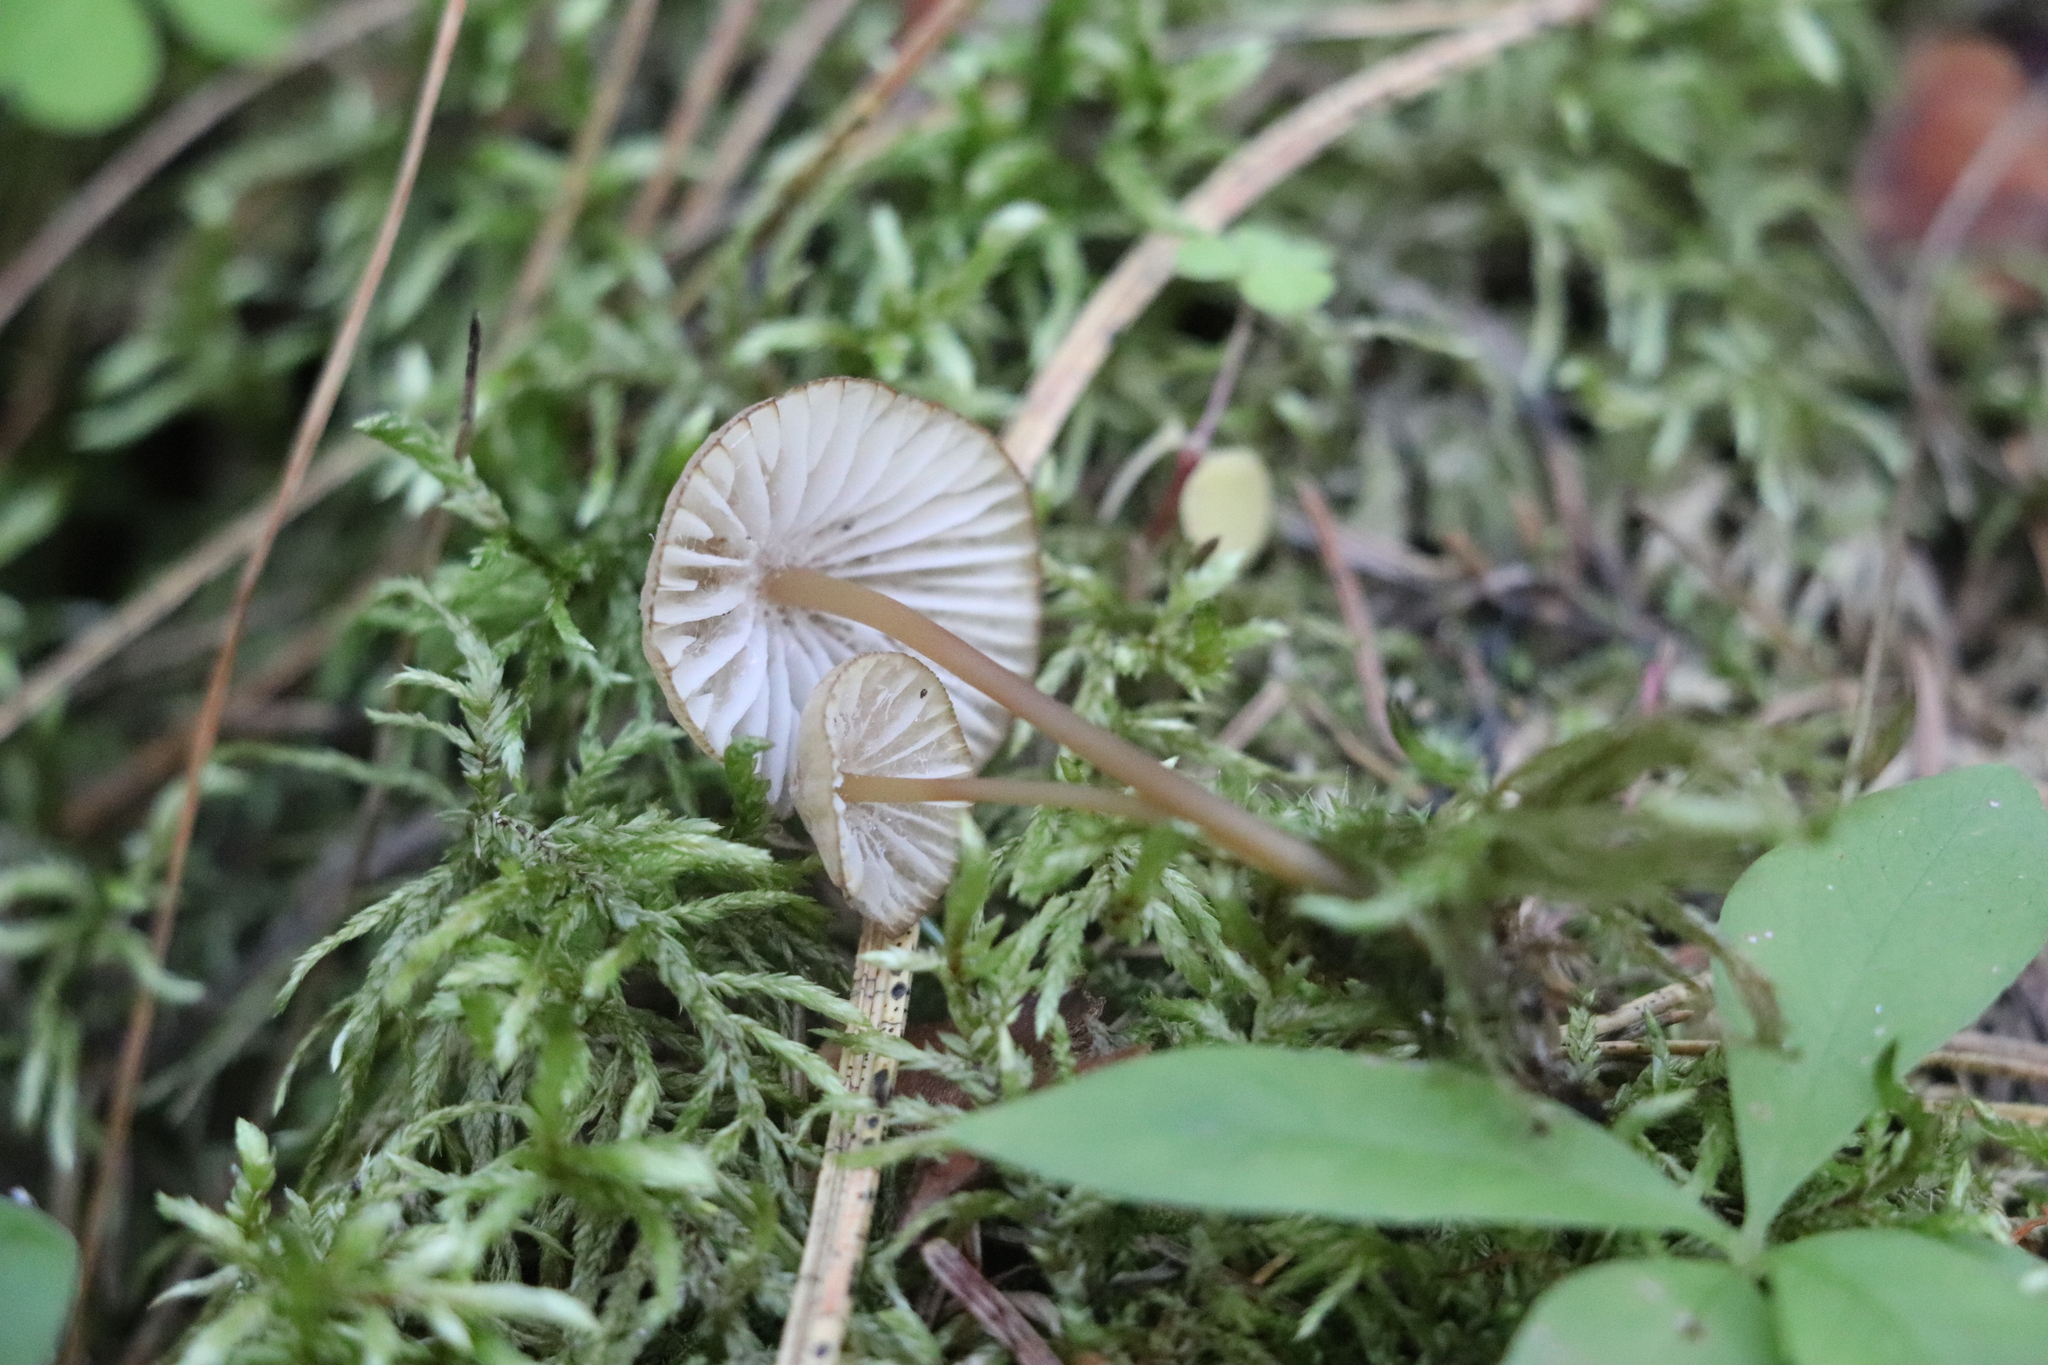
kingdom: Fungi
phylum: Basidiomycota
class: Agaricomycetes
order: Agaricales
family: Mycenaceae
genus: Mycena
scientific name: Mycena viridimarginata
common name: Olive edge bonnet
